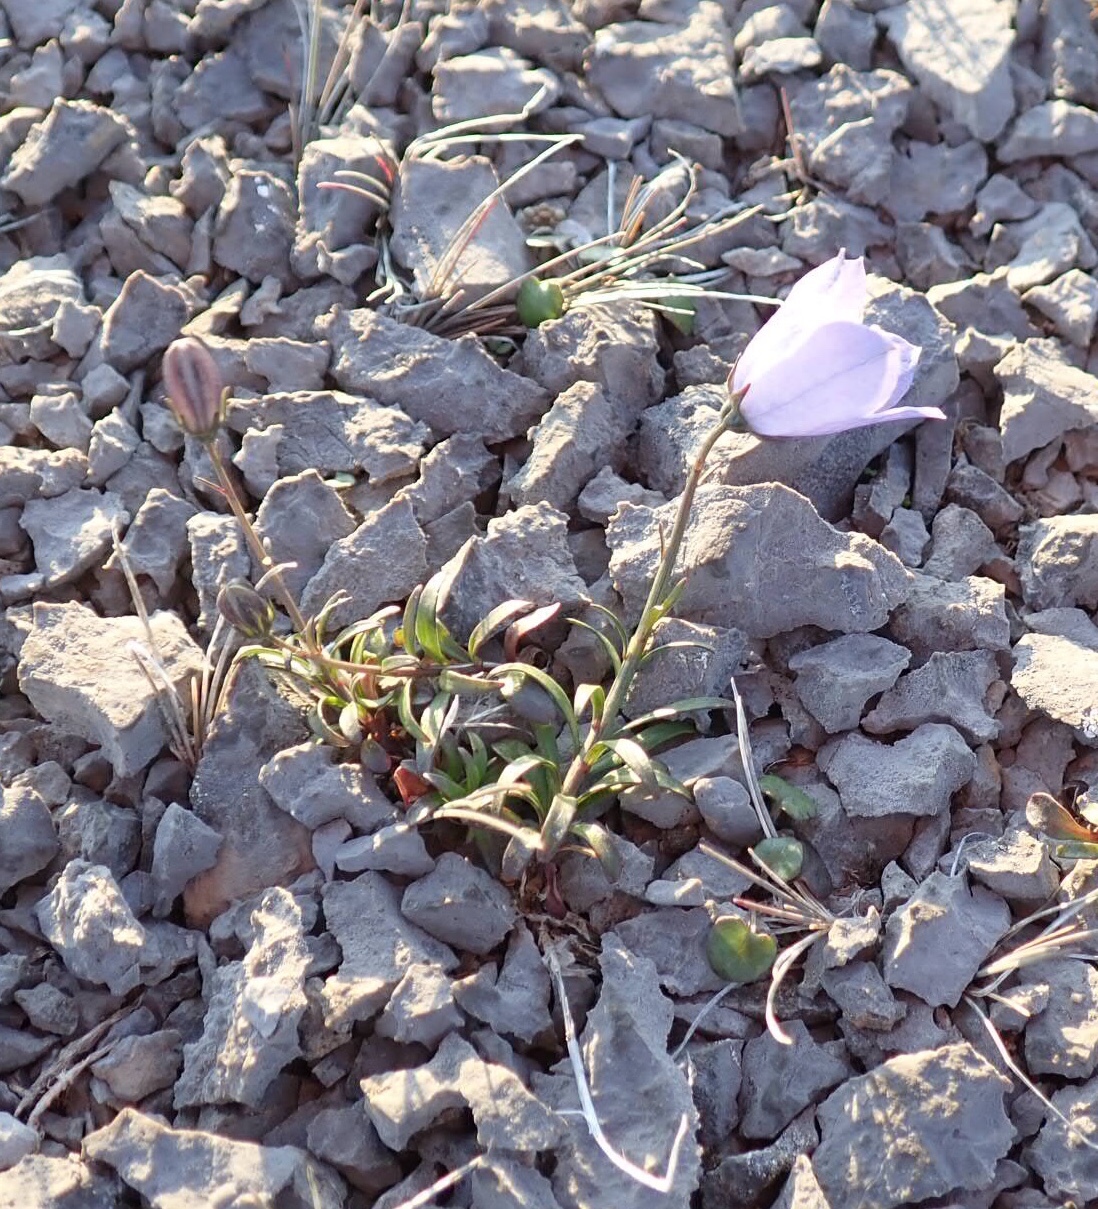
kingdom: Plantae
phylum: Tracheophyta
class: Magnoliopsida
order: Asterales
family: Campanulaceae
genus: Campanula
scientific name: Campanula giesekiana
